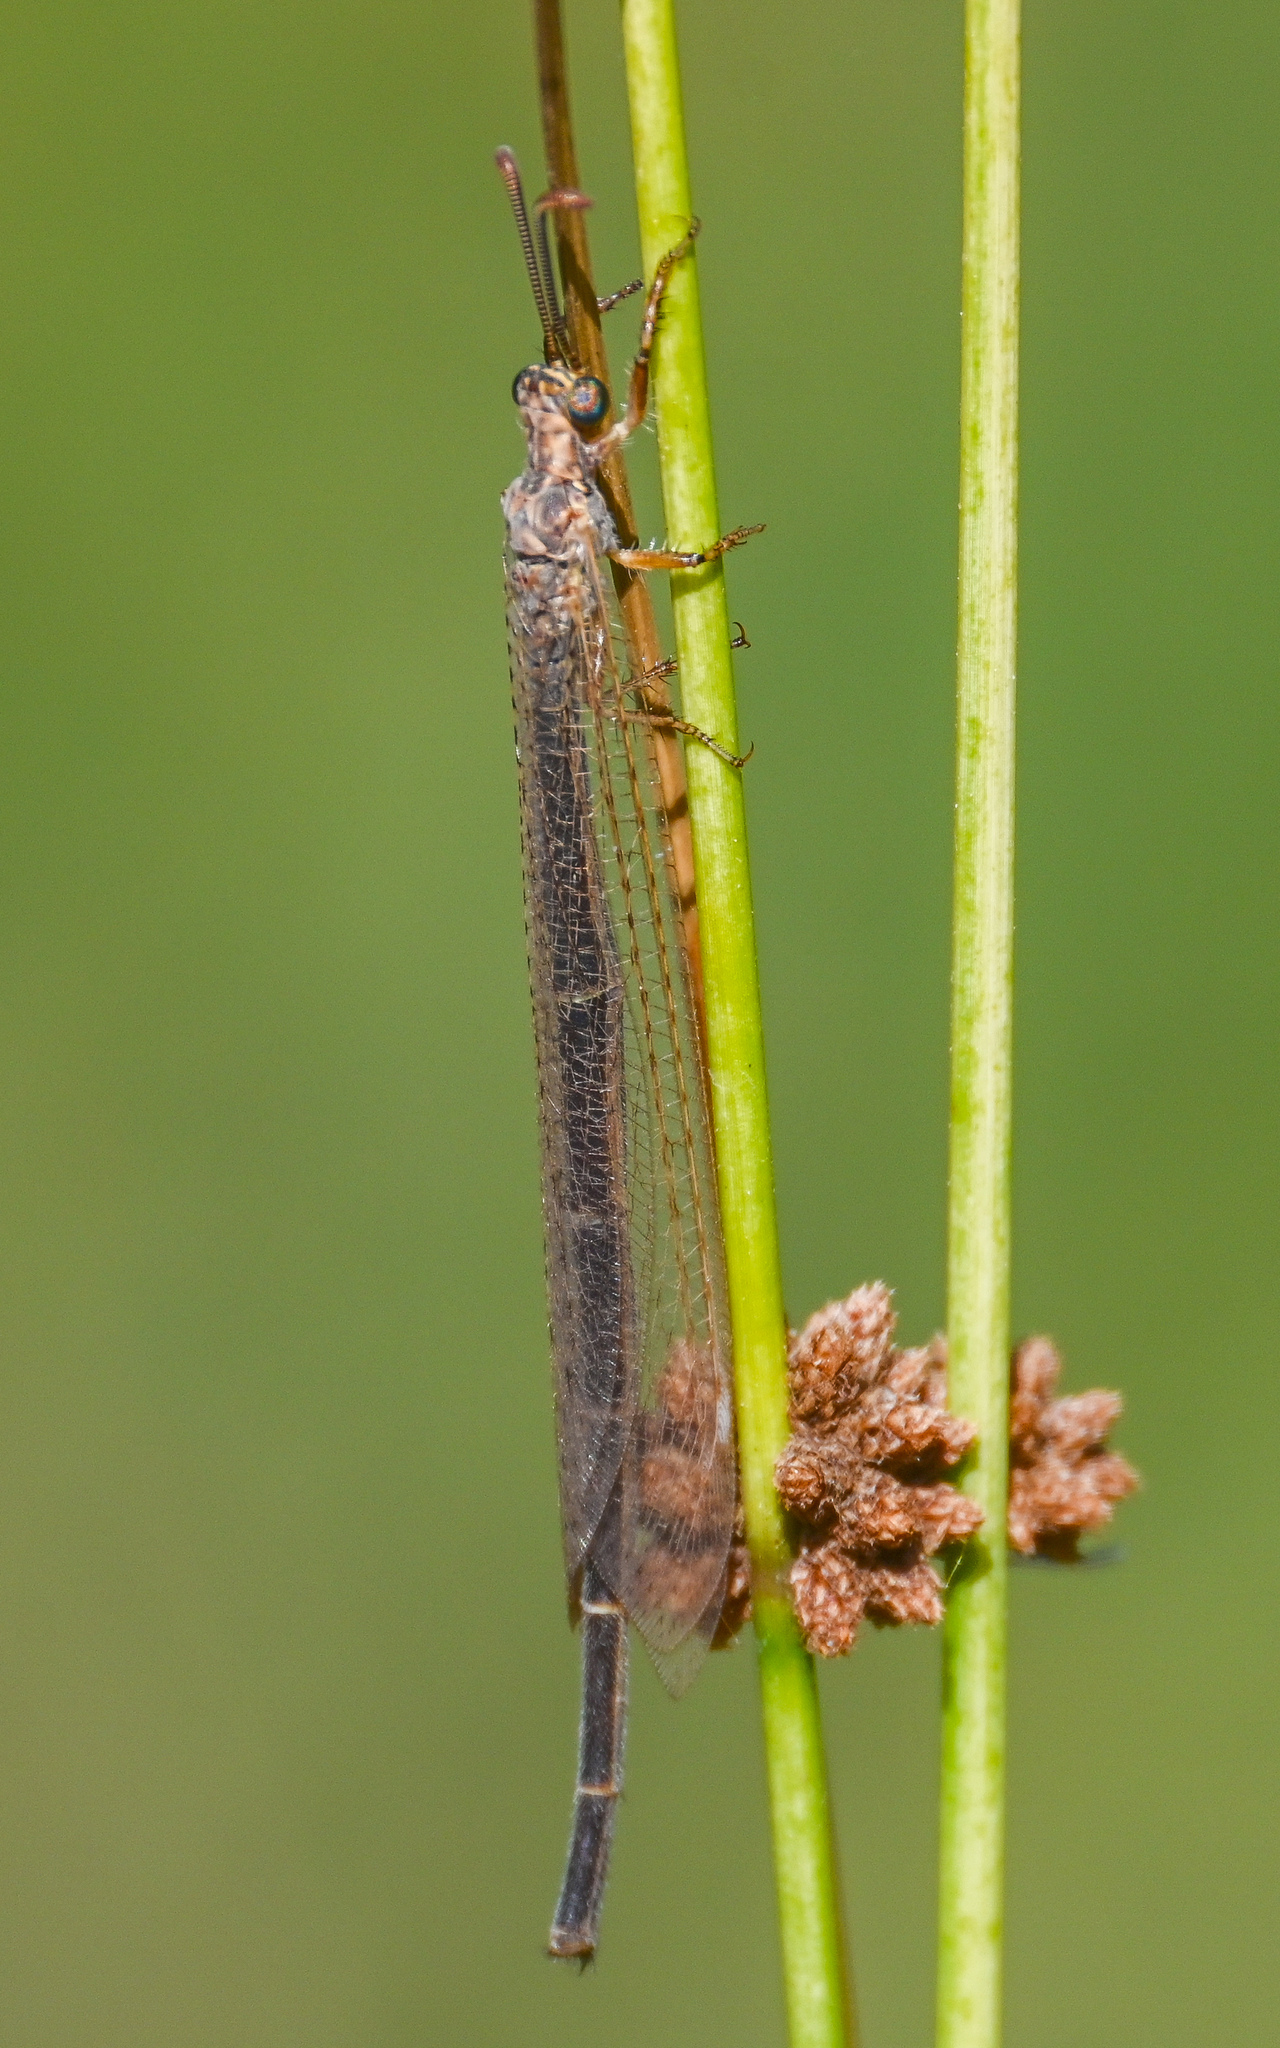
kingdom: Animalia
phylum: Arthropoda
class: Insecta
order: Neuroptera
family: Myrmeleontidae
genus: Creoleon
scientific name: Creoleon plumbeus
